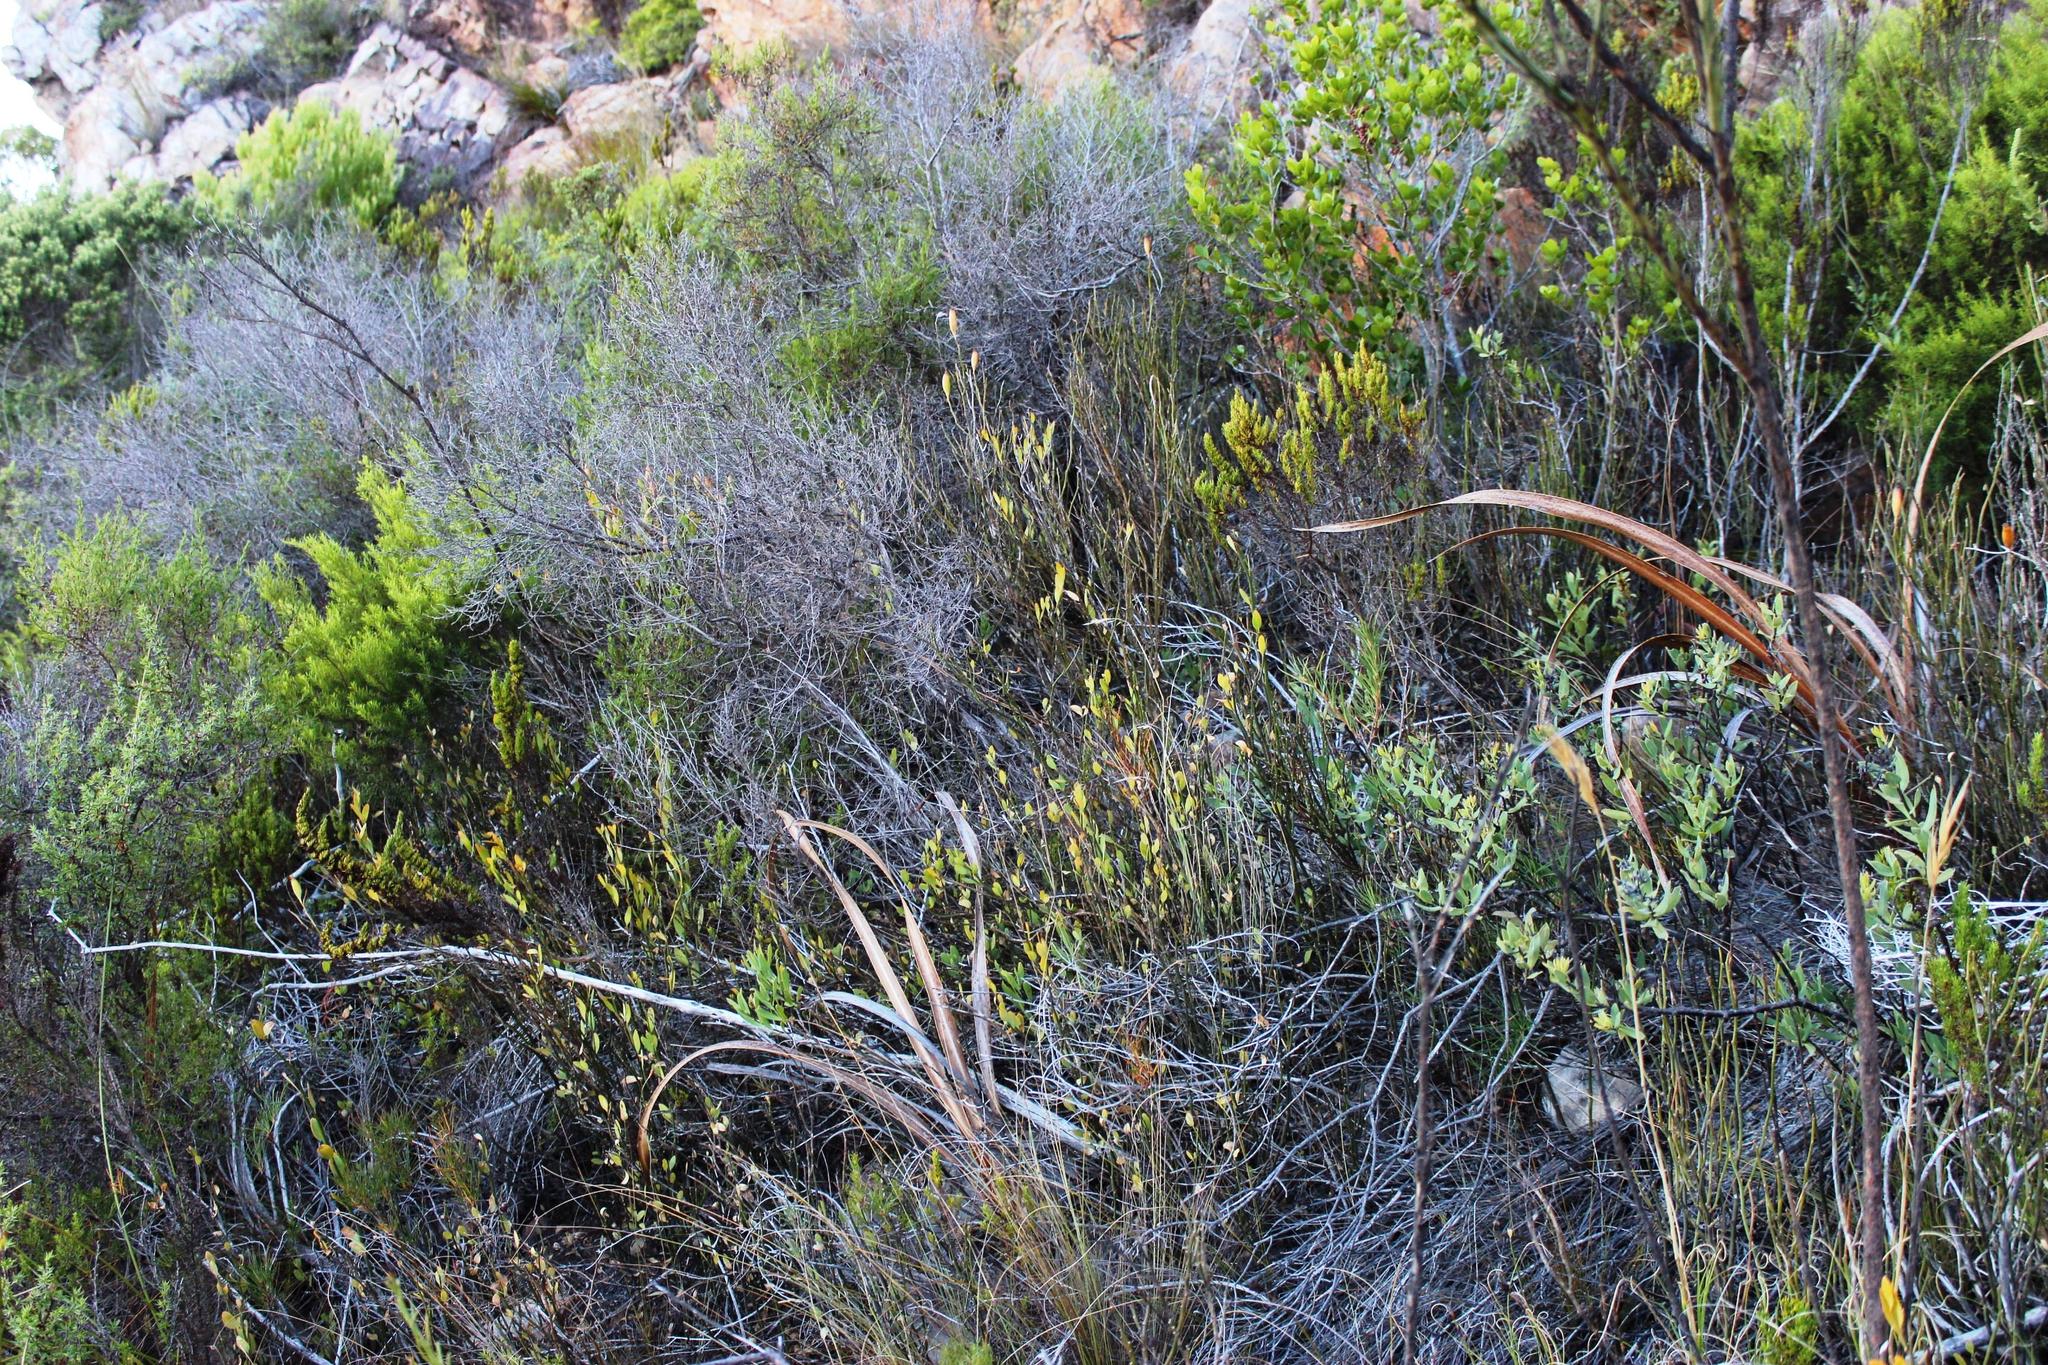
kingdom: Plantae
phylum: Tracheophyta
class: Magnoliopsida
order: Solanales
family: Montiniaceae
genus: Montinia
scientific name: Montinia caryophyllacea
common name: Wild clove-bush
